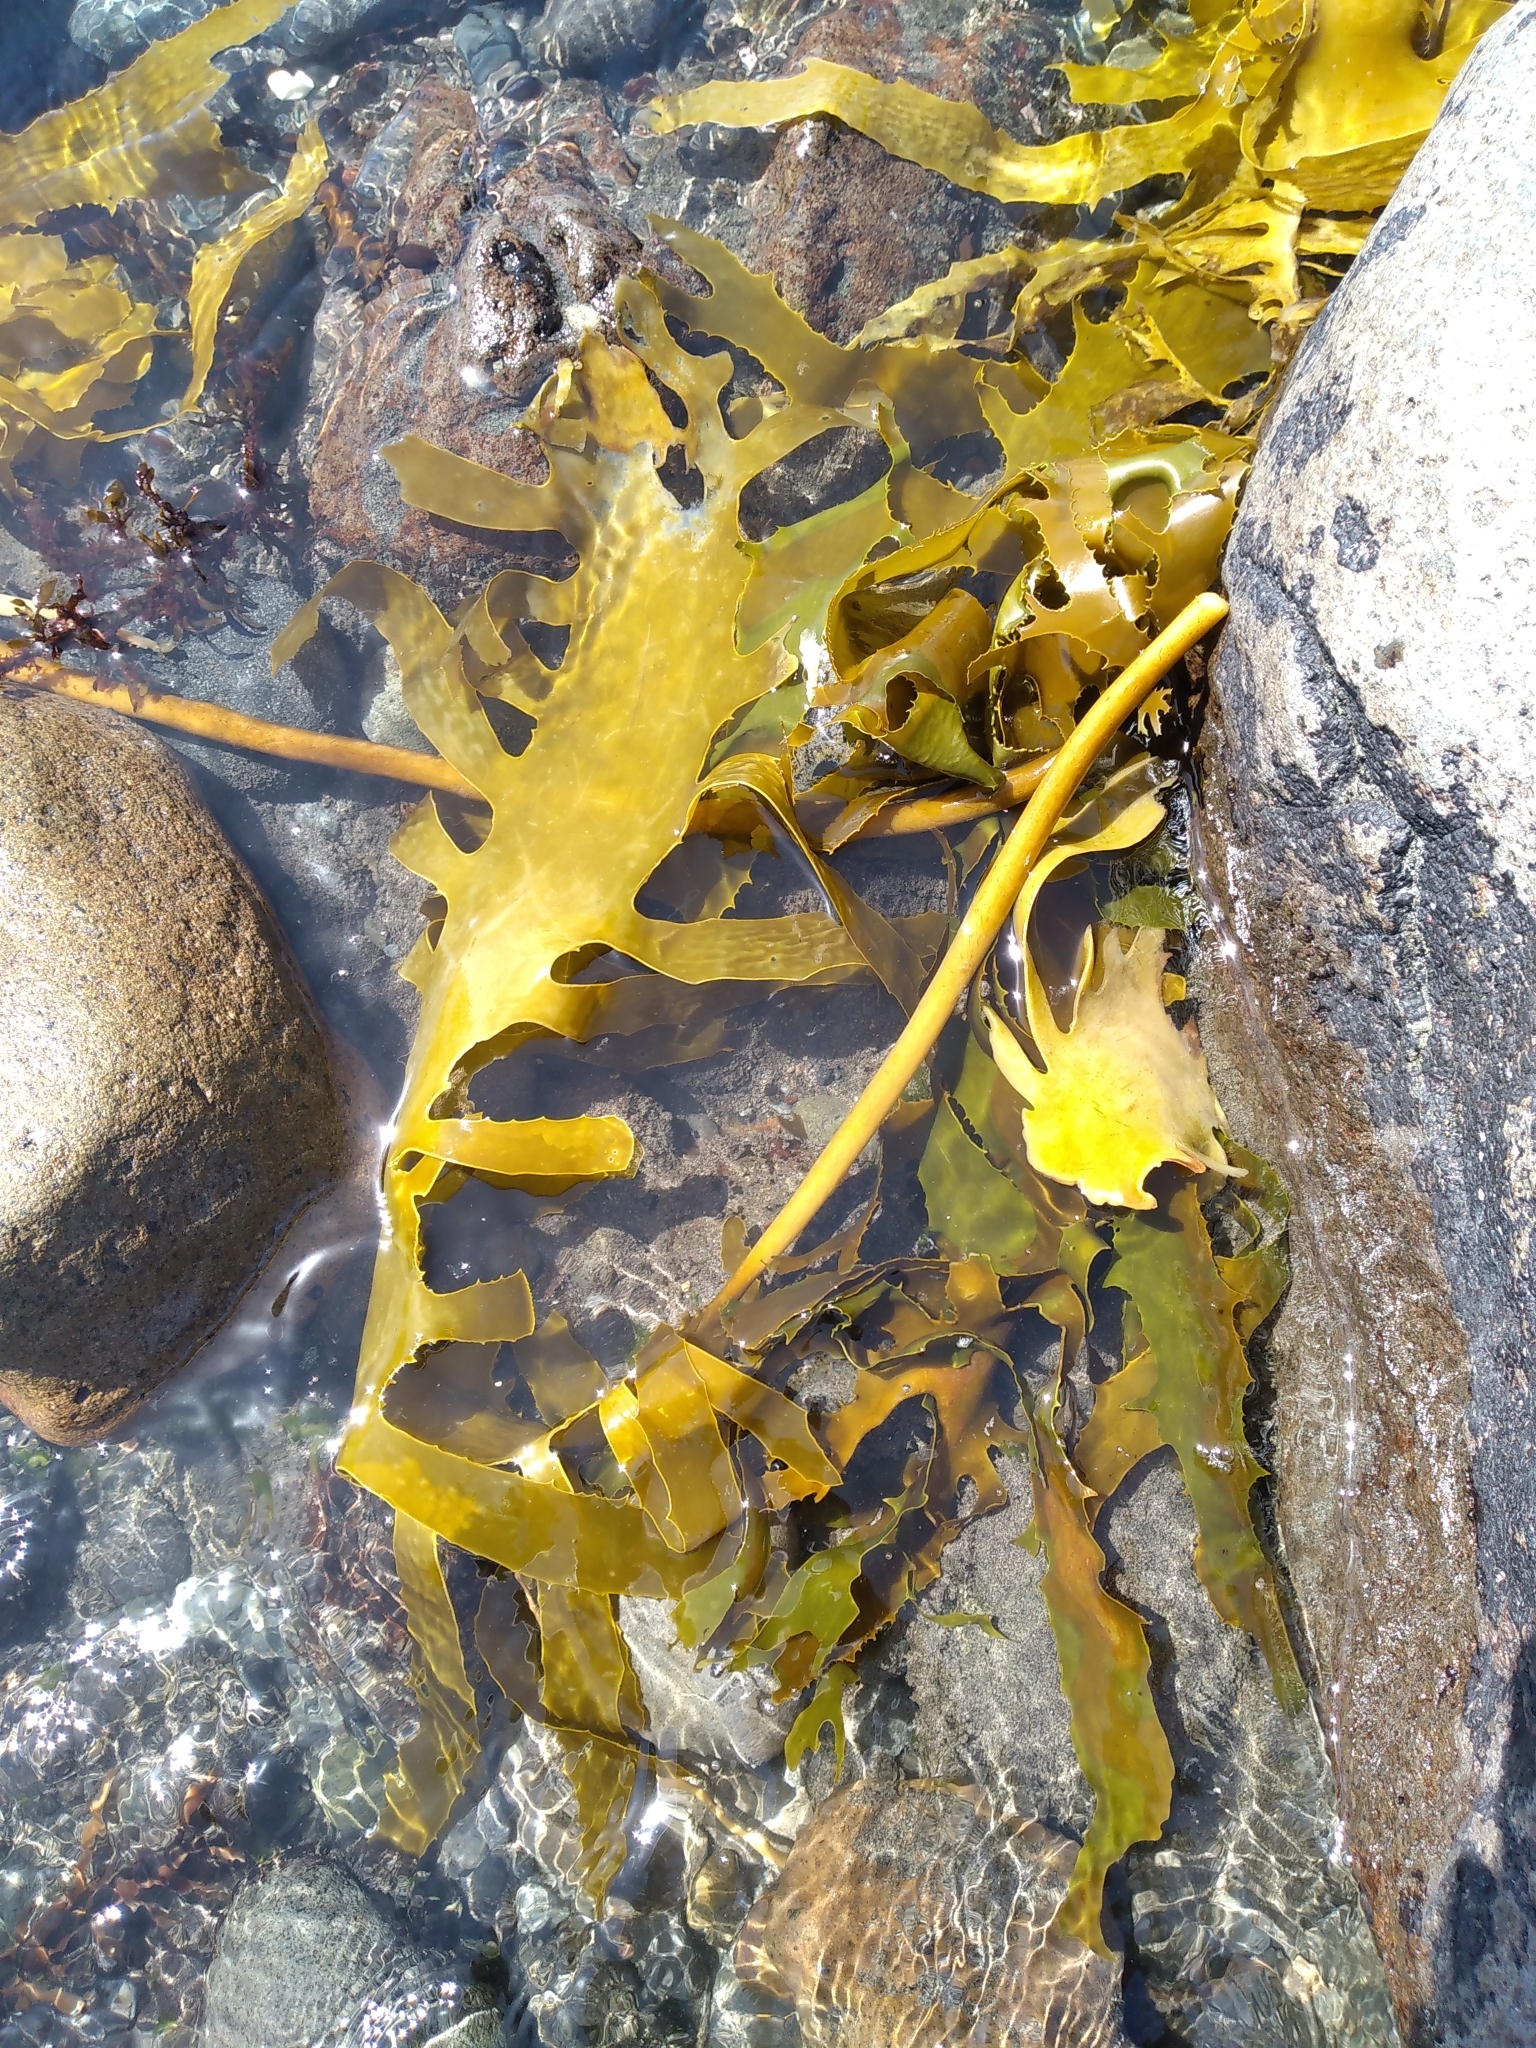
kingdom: Chromista
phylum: Ochrophyta
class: Phaeophyceae
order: Laminariales
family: Lessoniaceae
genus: Ecklonia
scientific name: Ecklonia radiata
